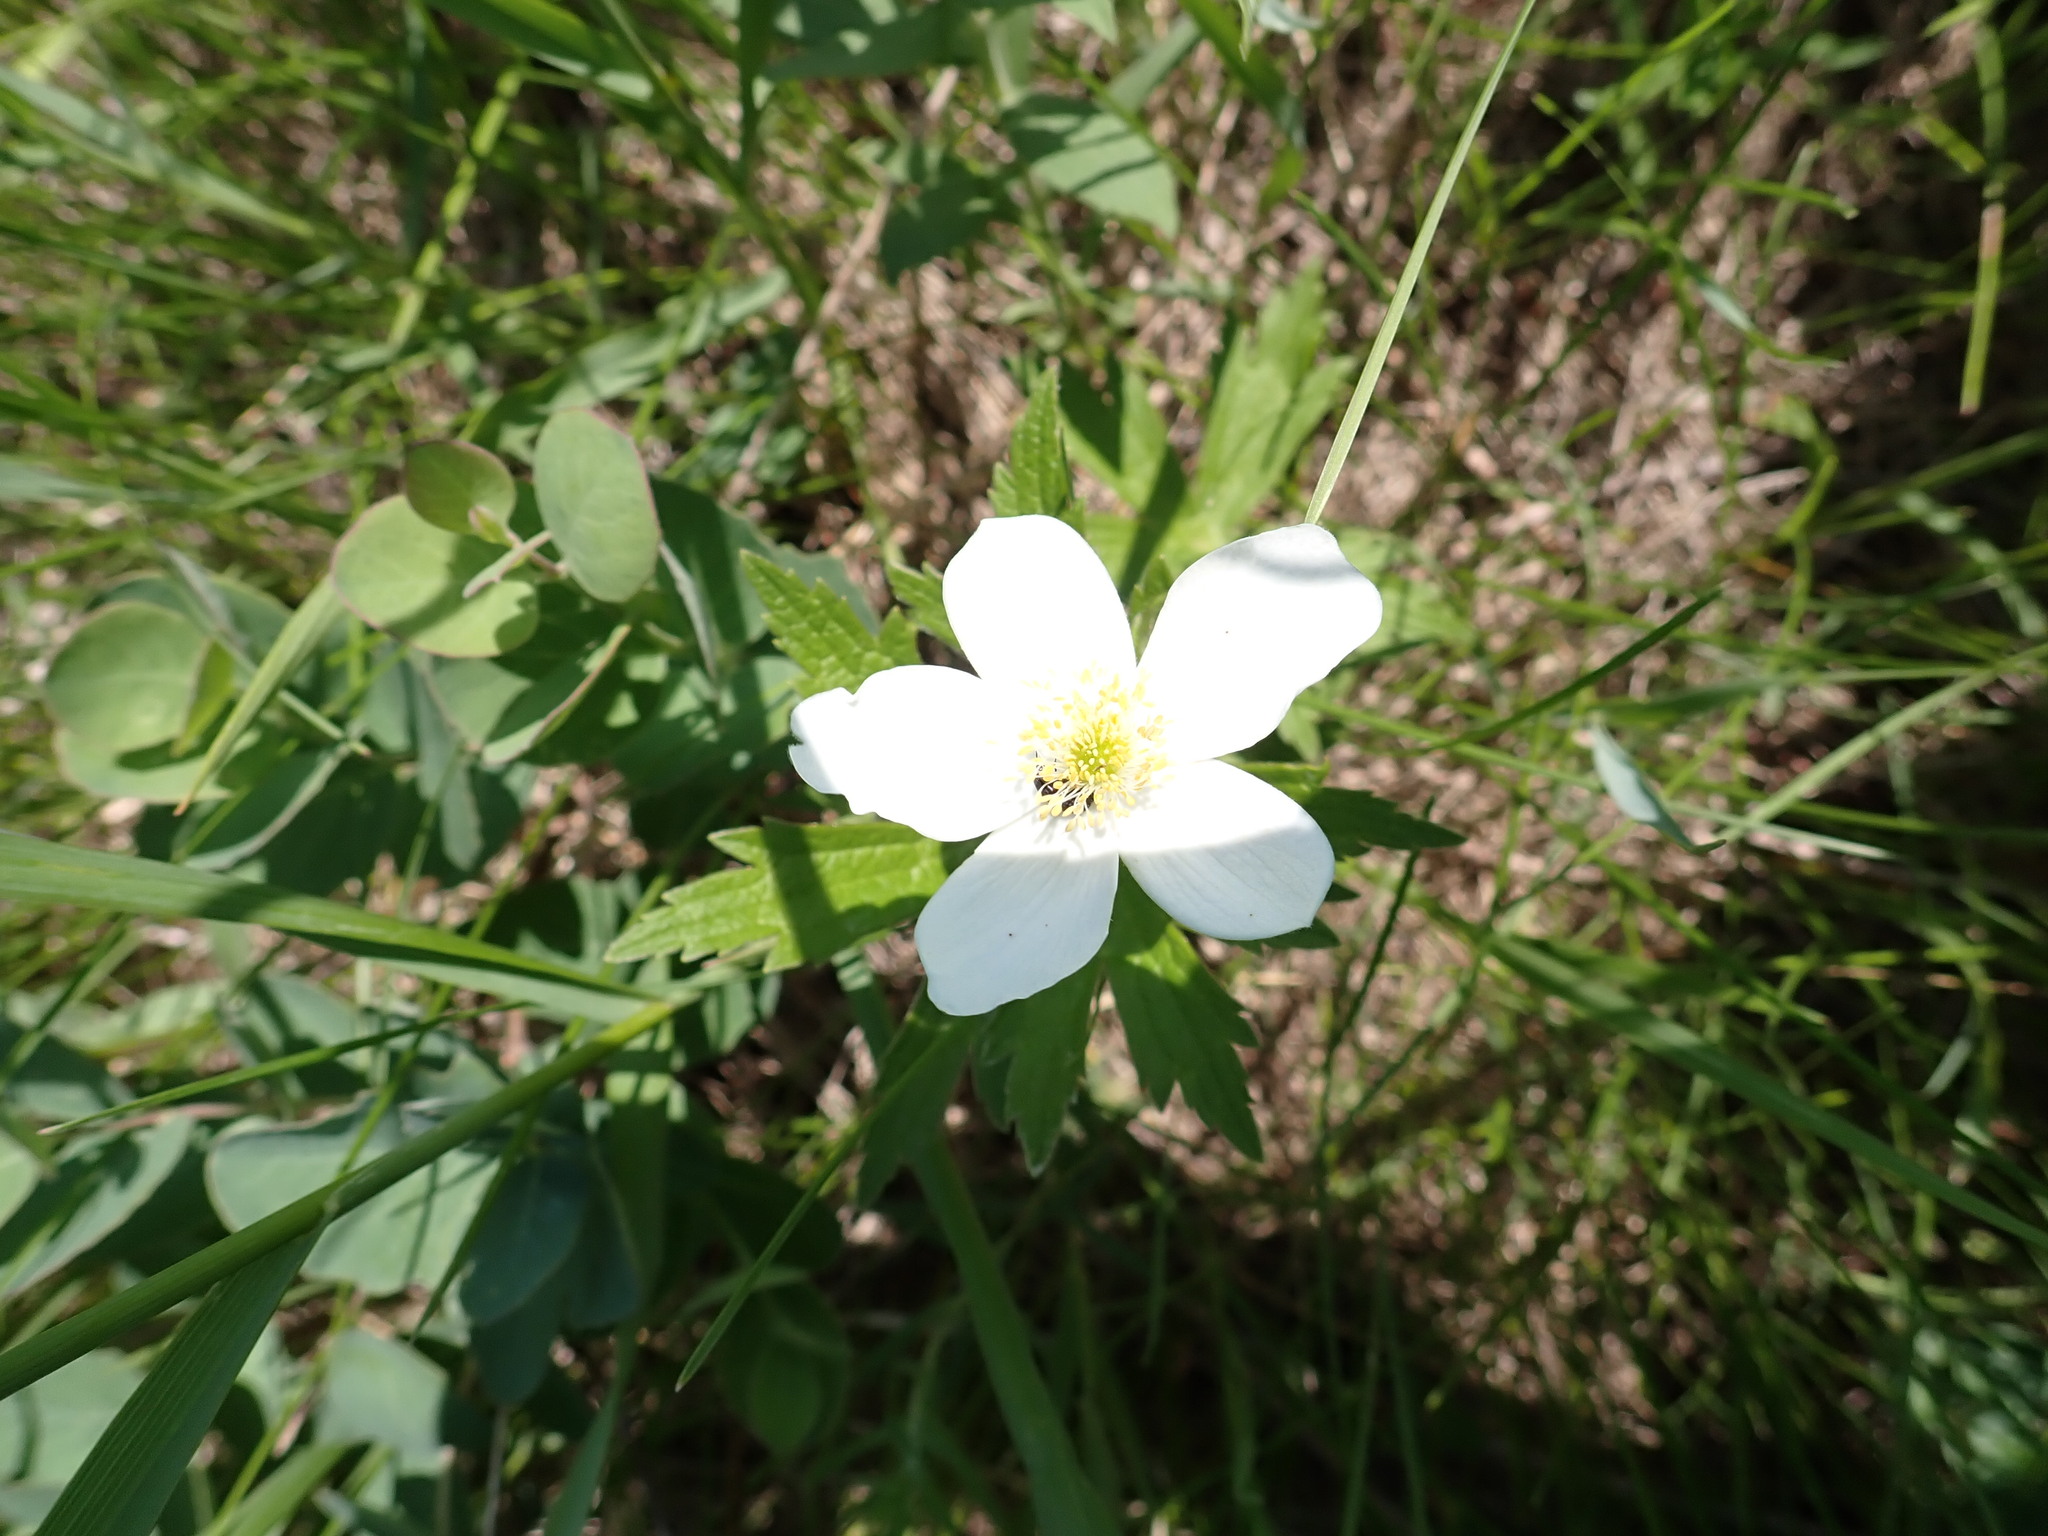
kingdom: Plantae
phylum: Tracheophyta
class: Magnoliopsida
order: Ranunculales
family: Ranunculaceae
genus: Anemonastrum
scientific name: Anemonastrum canadense
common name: Canada anemone
